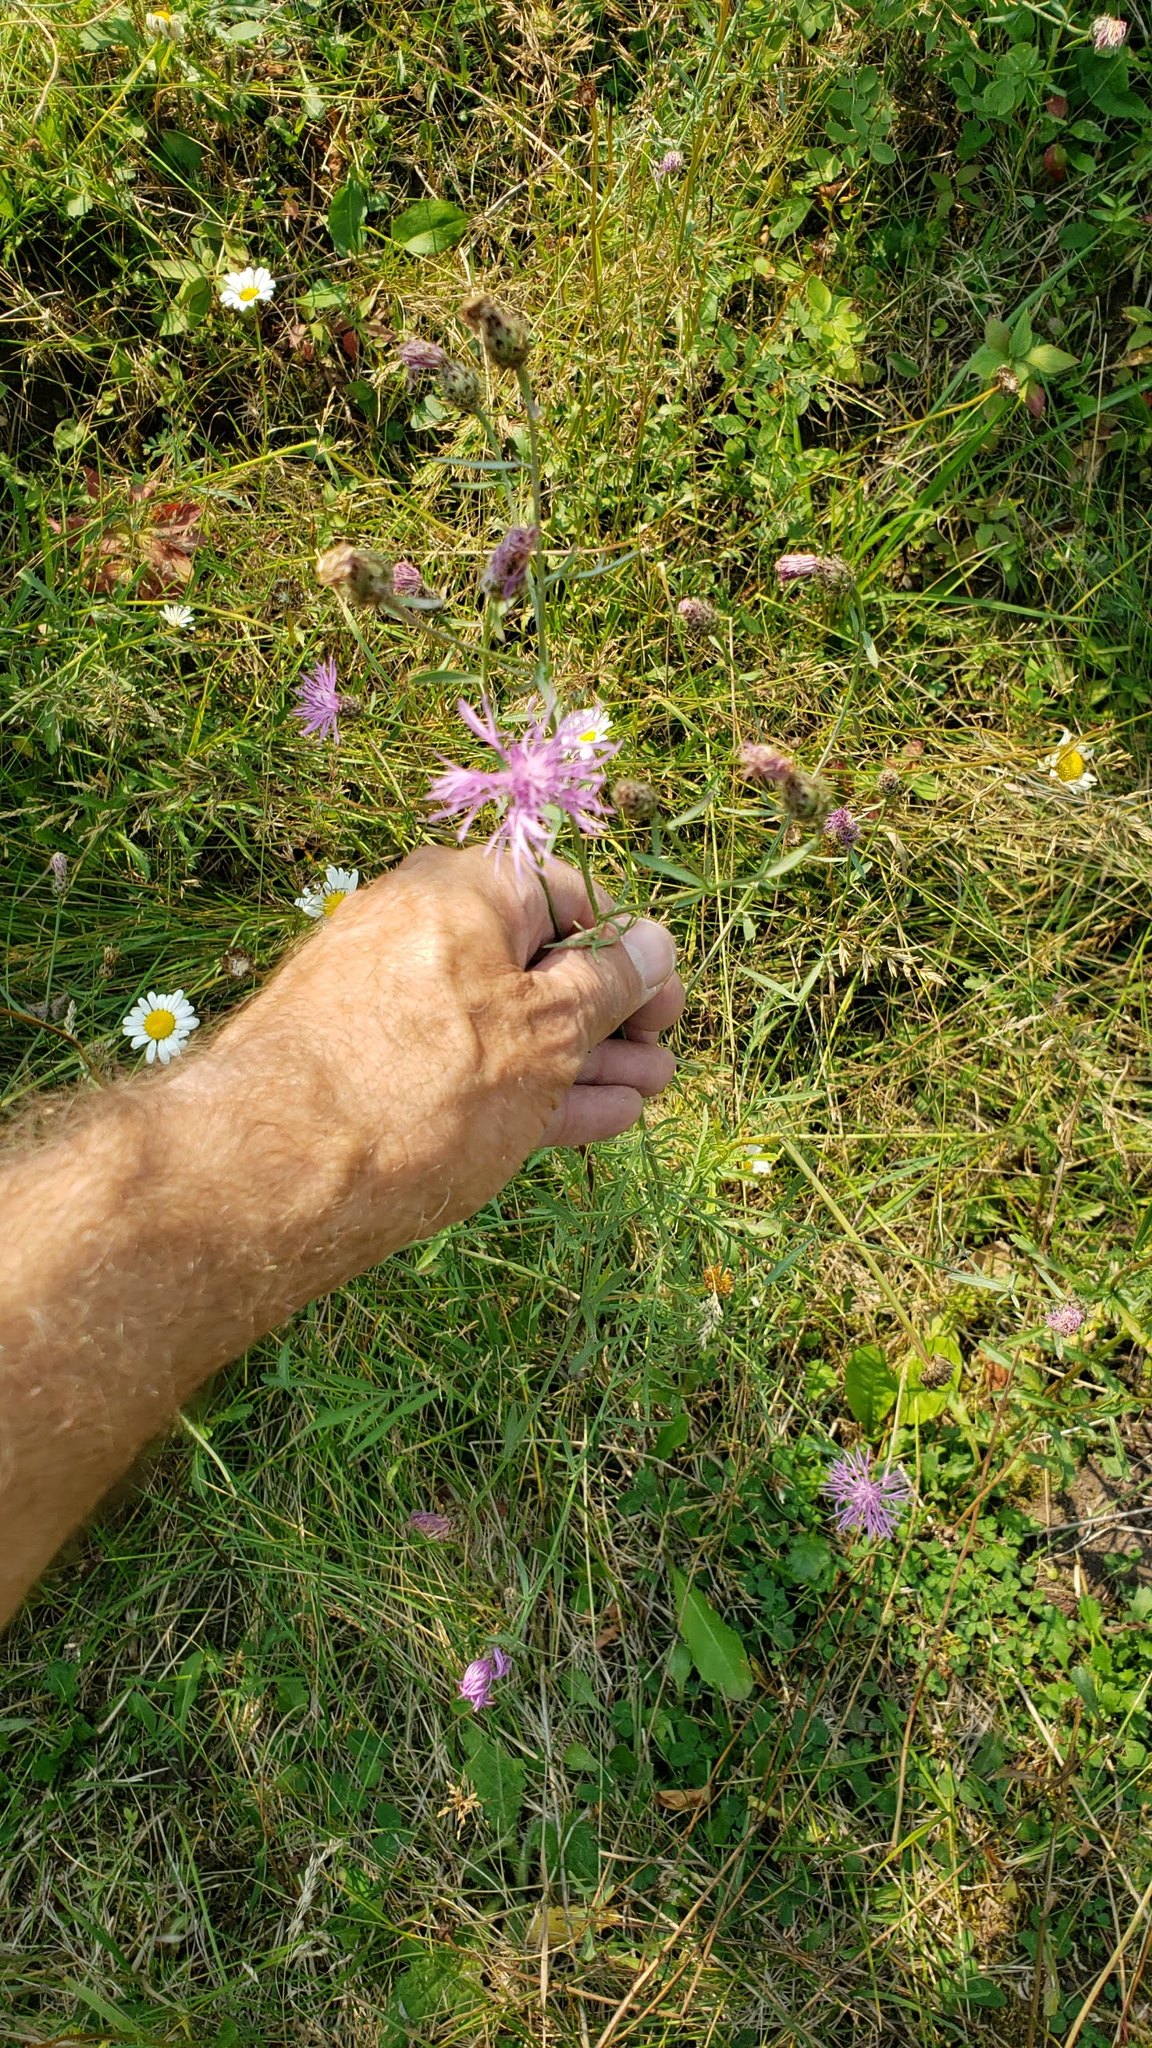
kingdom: Plantae
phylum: Tracheophyta
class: Magnoliopsida
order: Asterales
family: Asteraceae
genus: Centaurea
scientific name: Centaurea stoebe
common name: Spotted knapweed
